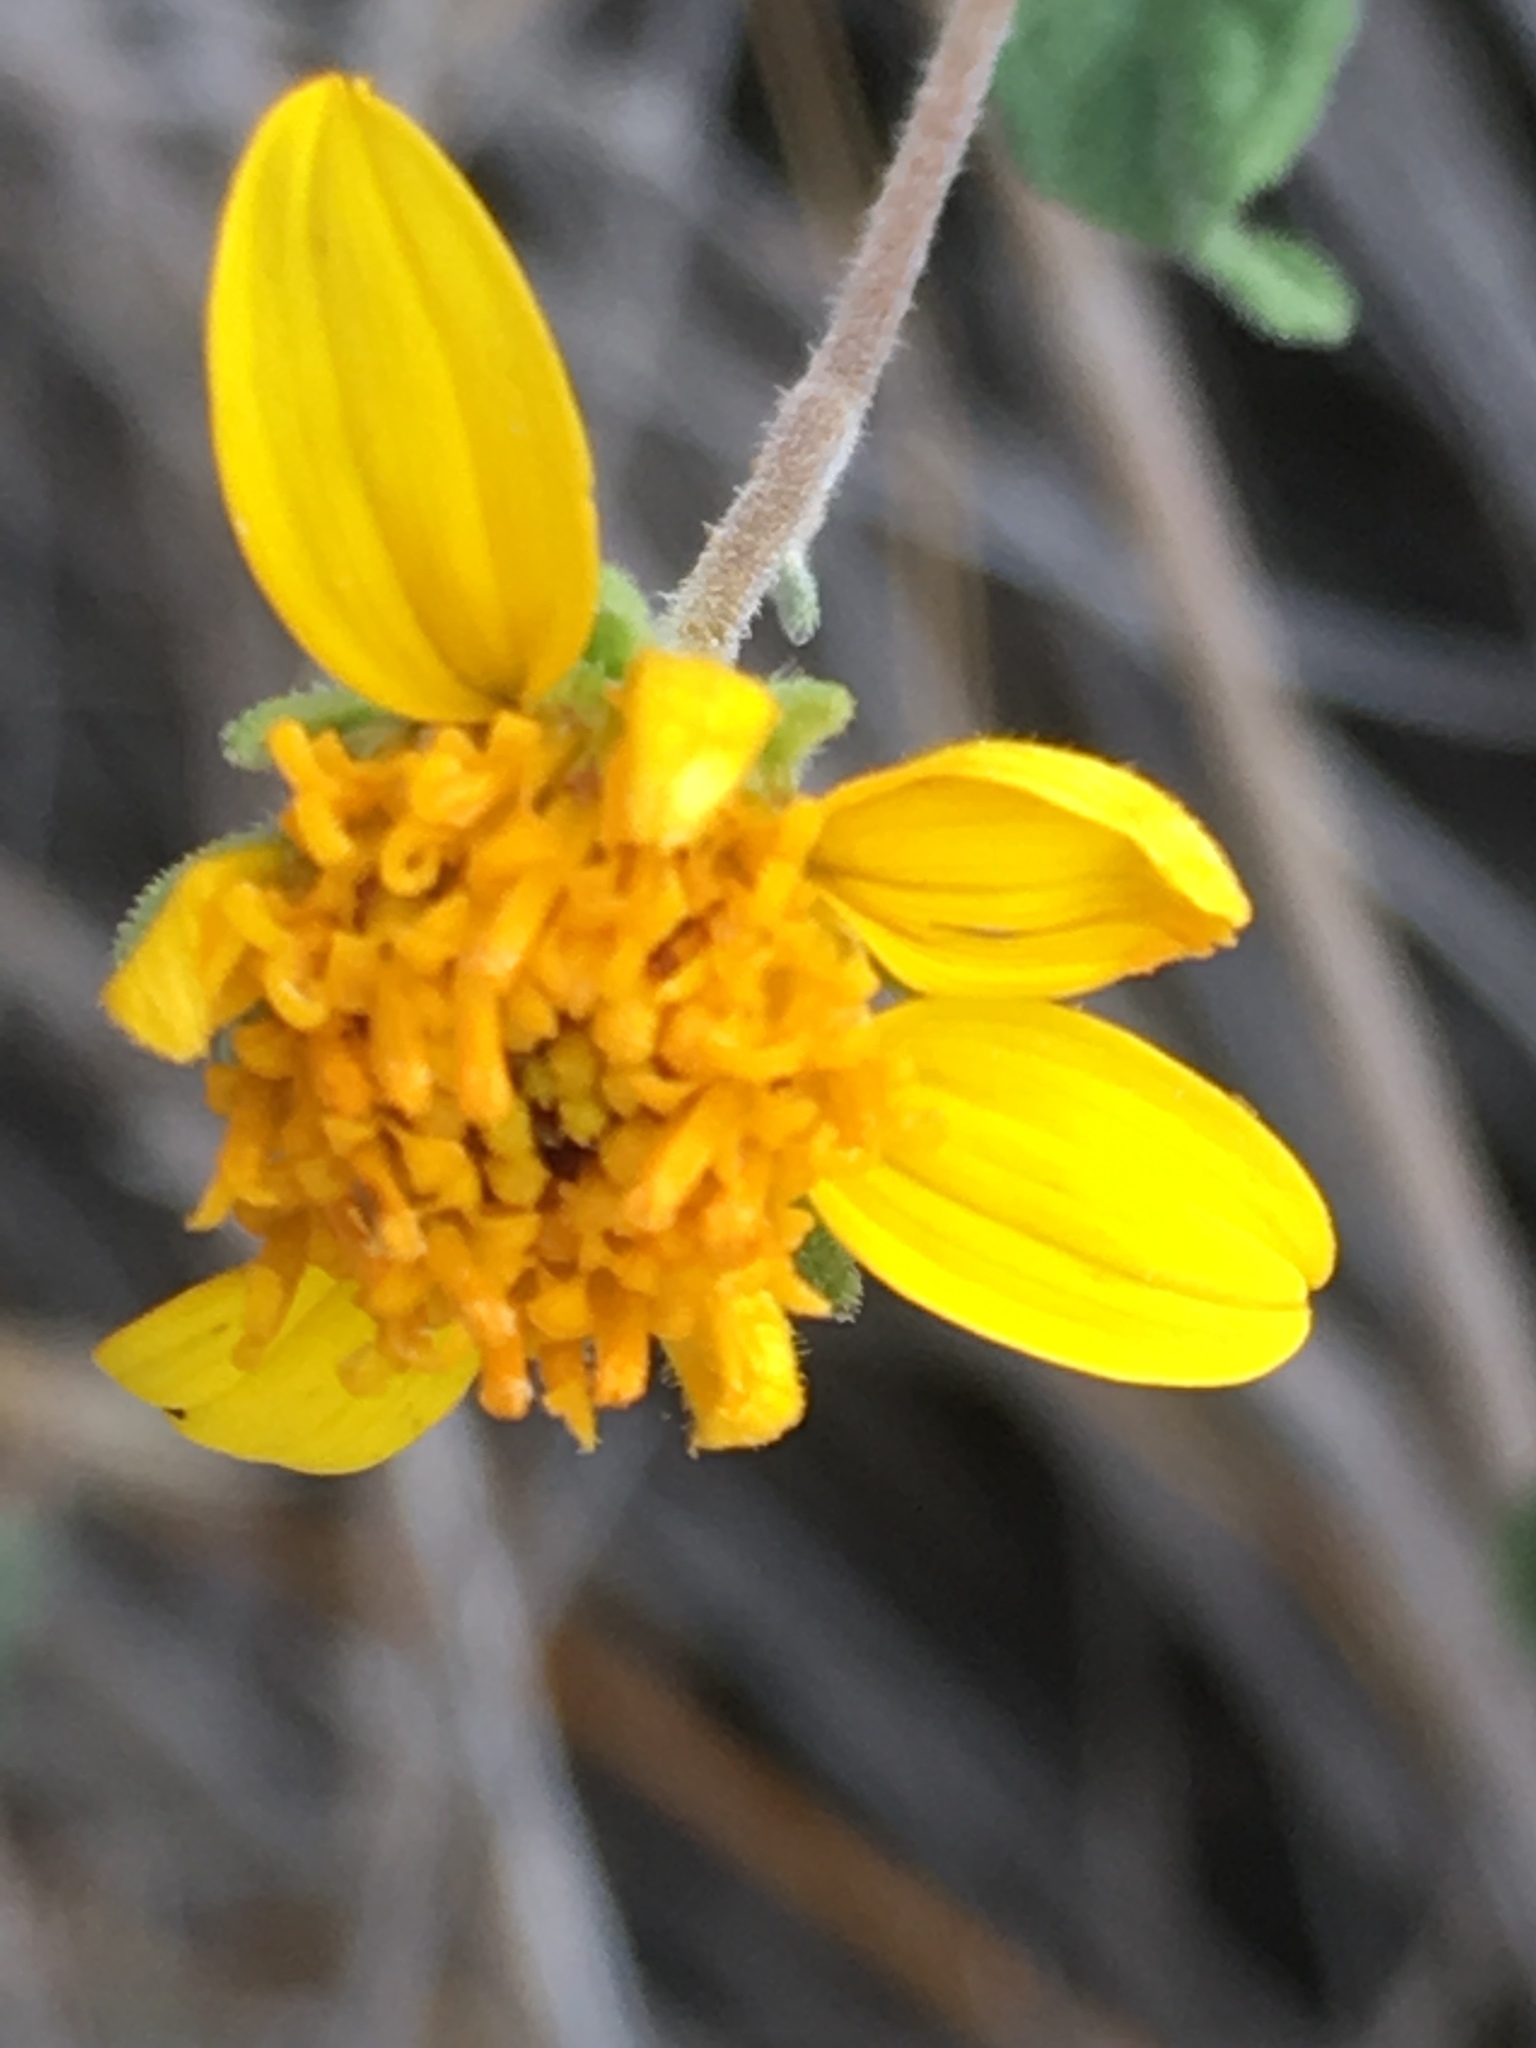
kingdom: Plantae
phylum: Tracheophyta
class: Magnoliopsida
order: Asterales
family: Asteraceae
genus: Bahiopsis
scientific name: Bahiopsis parishii
